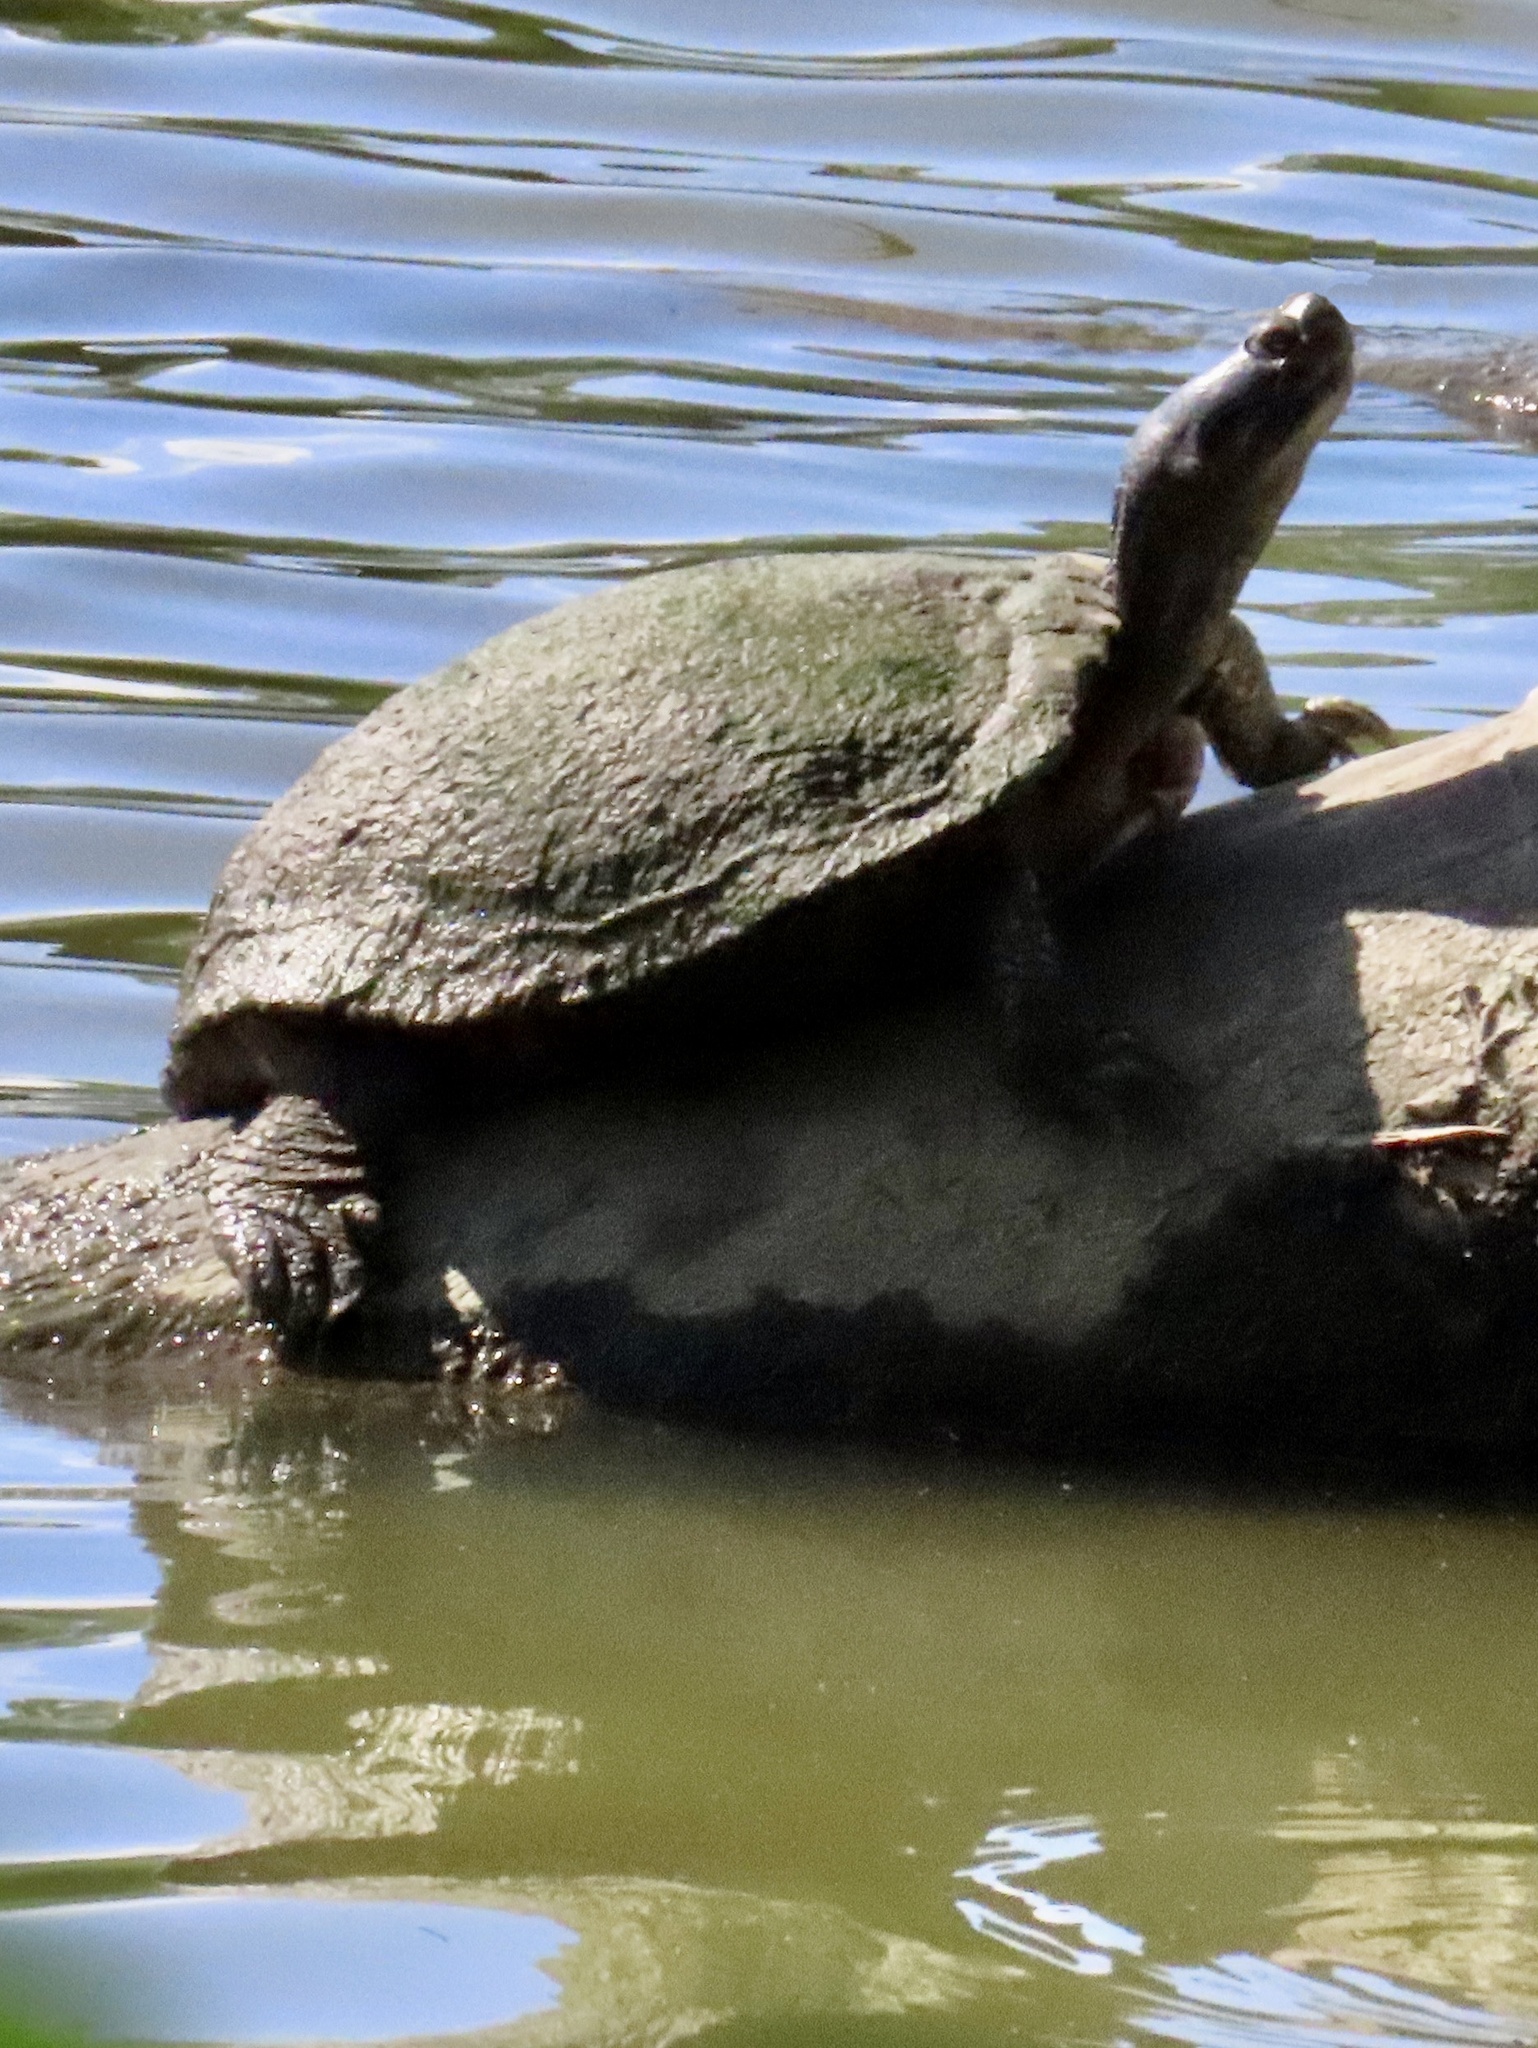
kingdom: Animalia
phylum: Chordata
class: Testudines
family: Emydidae
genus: Trachemys
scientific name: Trachemys scripta
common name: Slider
